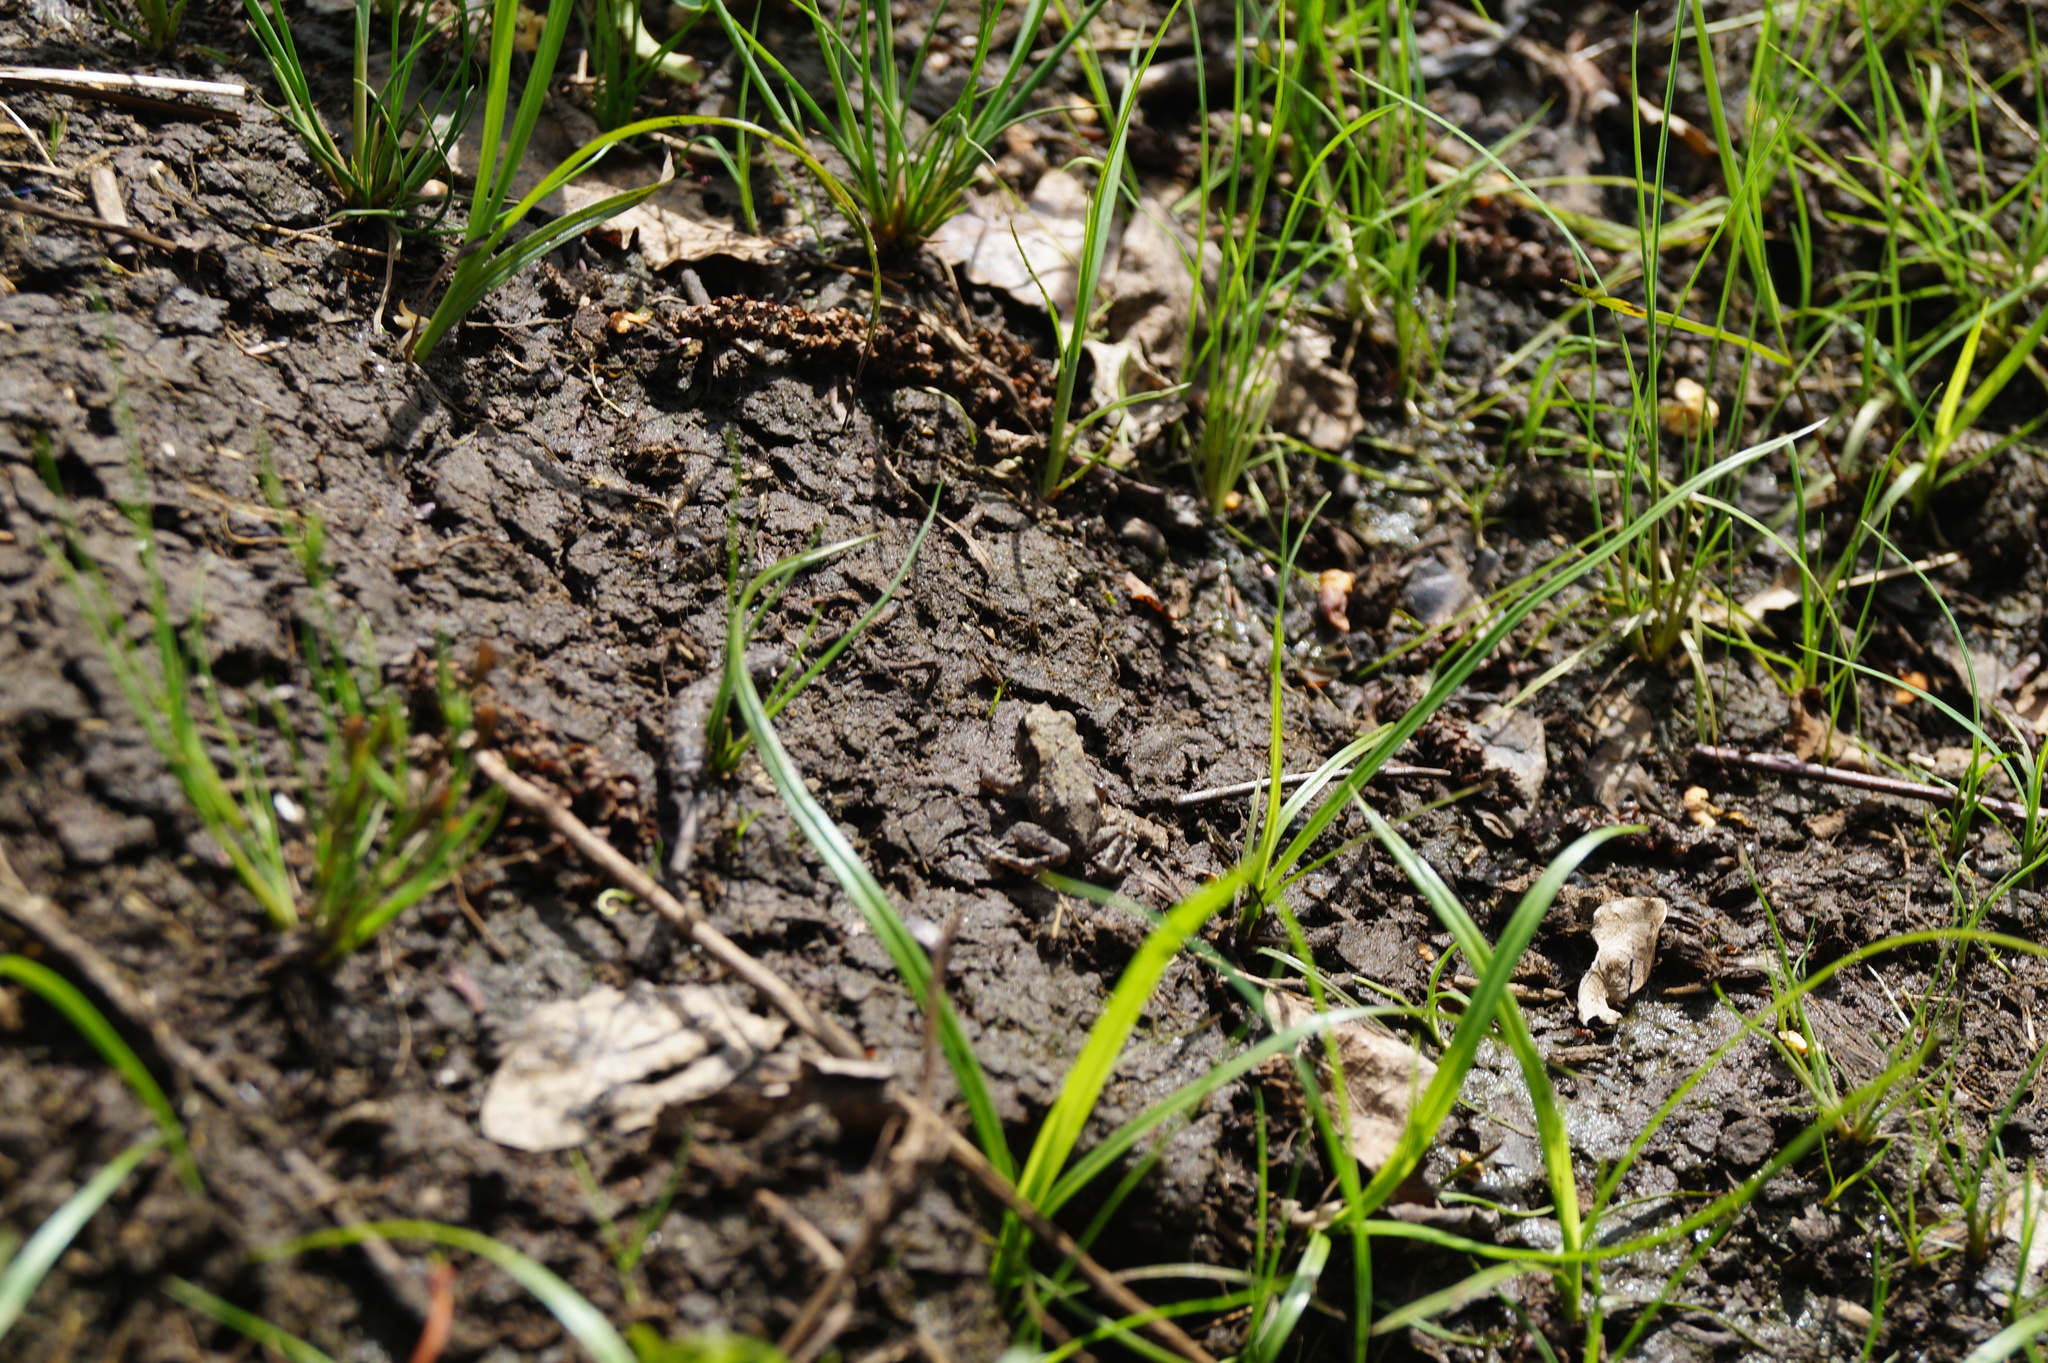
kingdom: Animalia
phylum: Chordata
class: Amphibia
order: Anura
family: Bufonidae
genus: Bufo
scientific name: Bufo bufo
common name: Common toad
